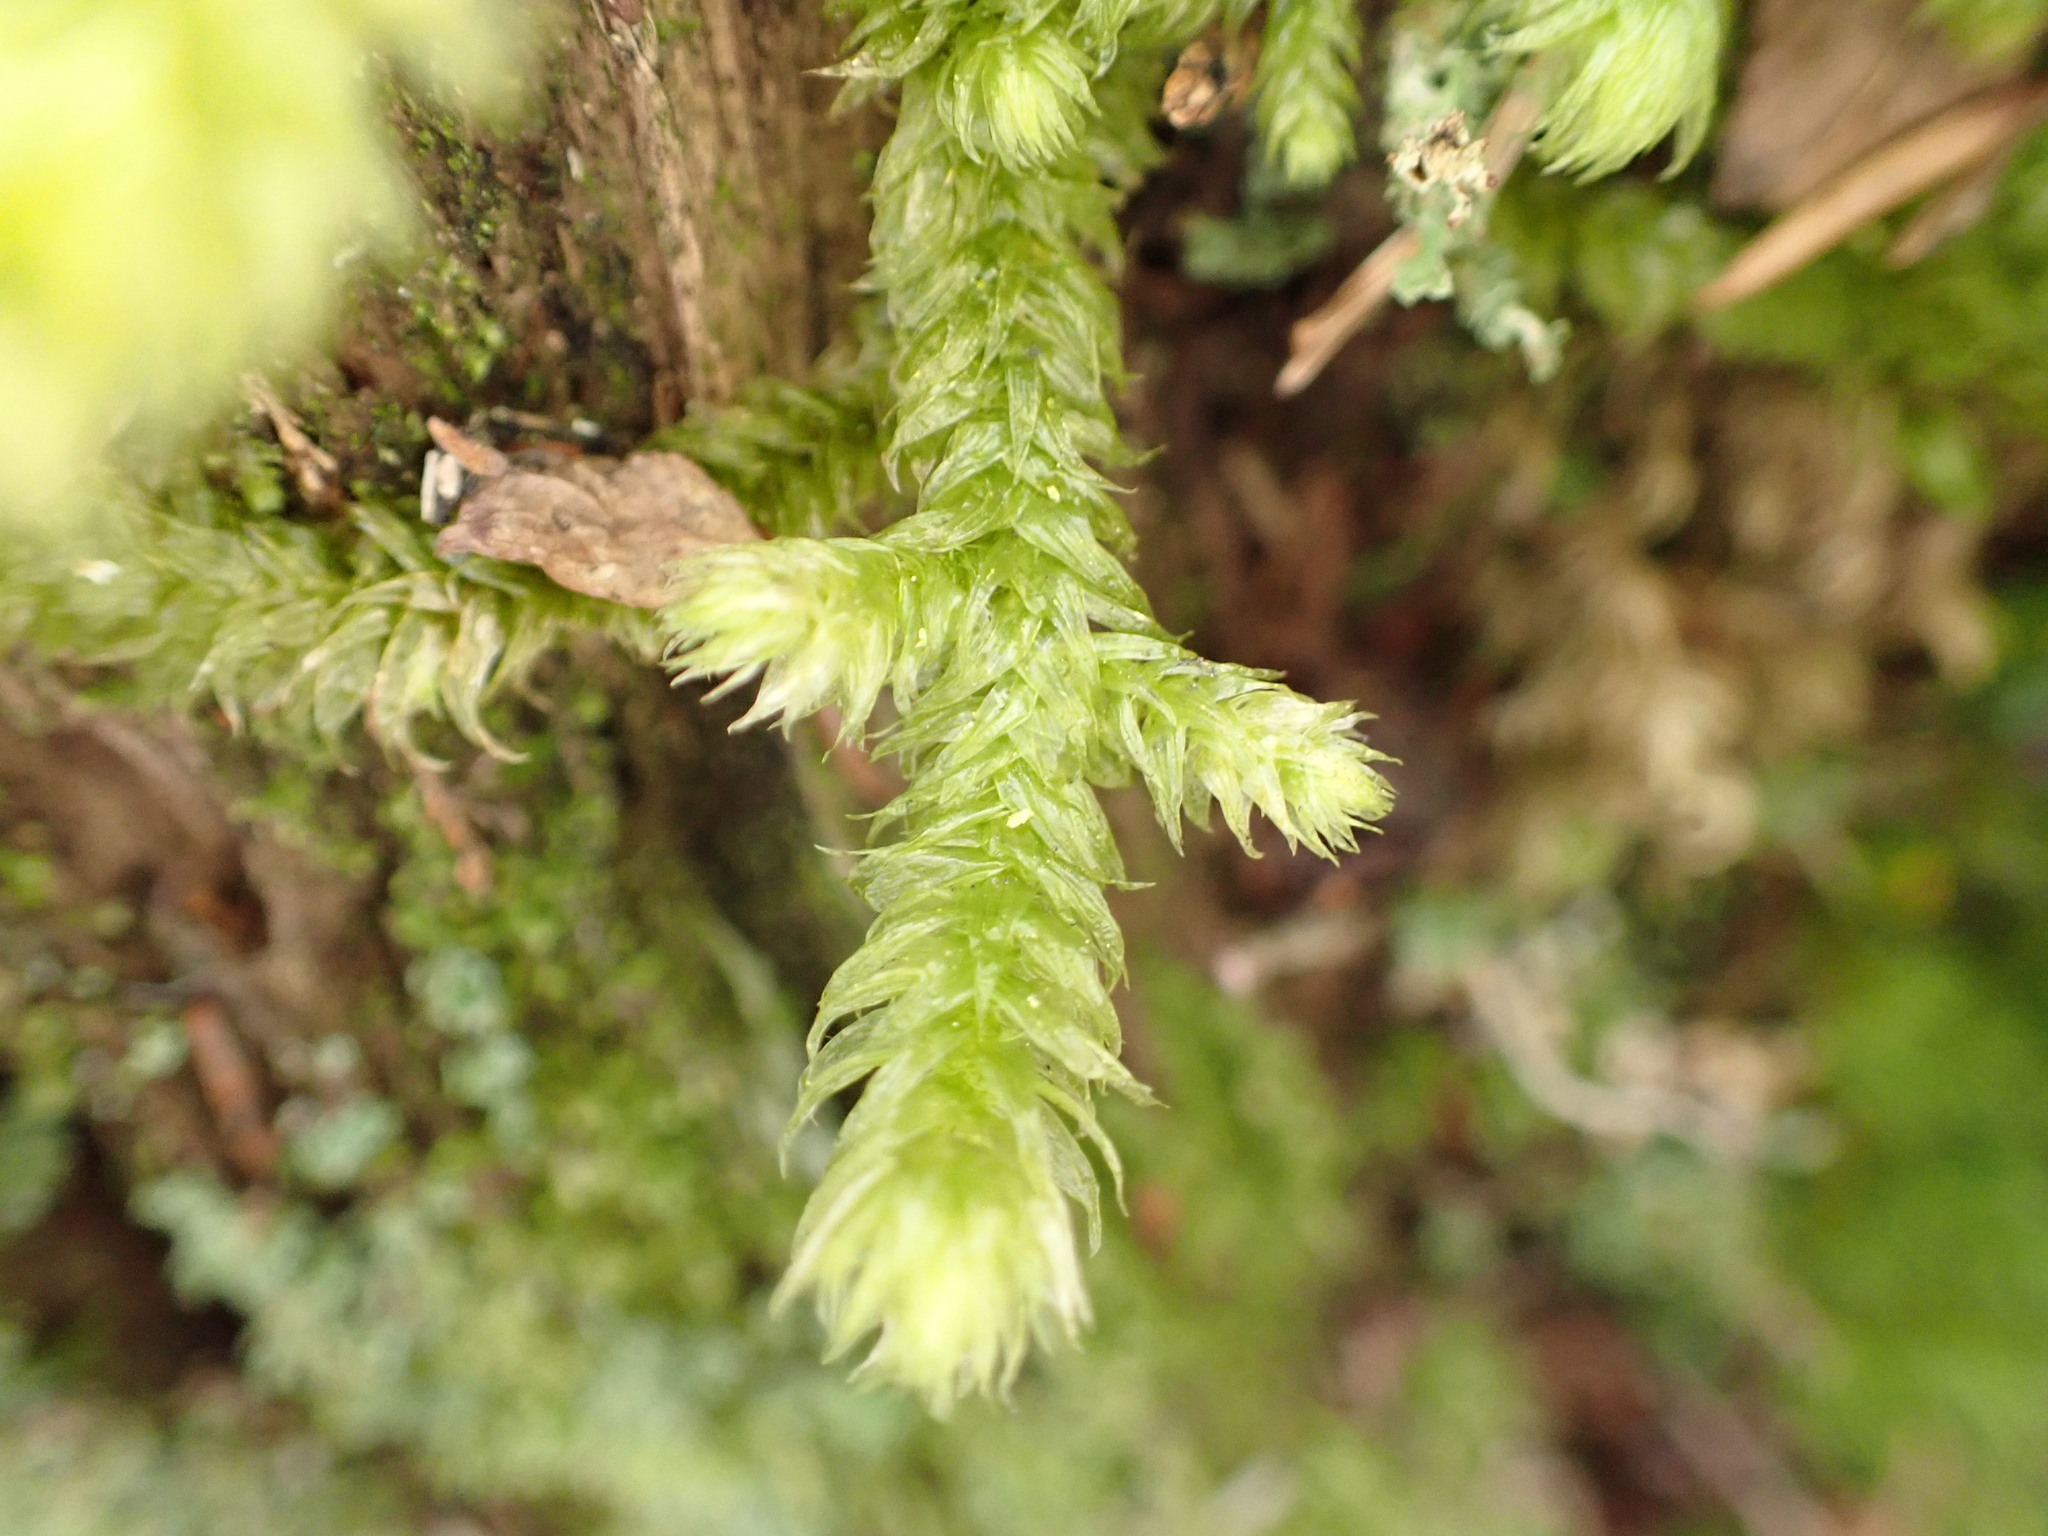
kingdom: Plantae
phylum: Bryophyta
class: Bryopsida
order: Hypnales
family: Hylocomiaceae
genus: Rhytidiopsis
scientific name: Rhytidiopsis robusta
